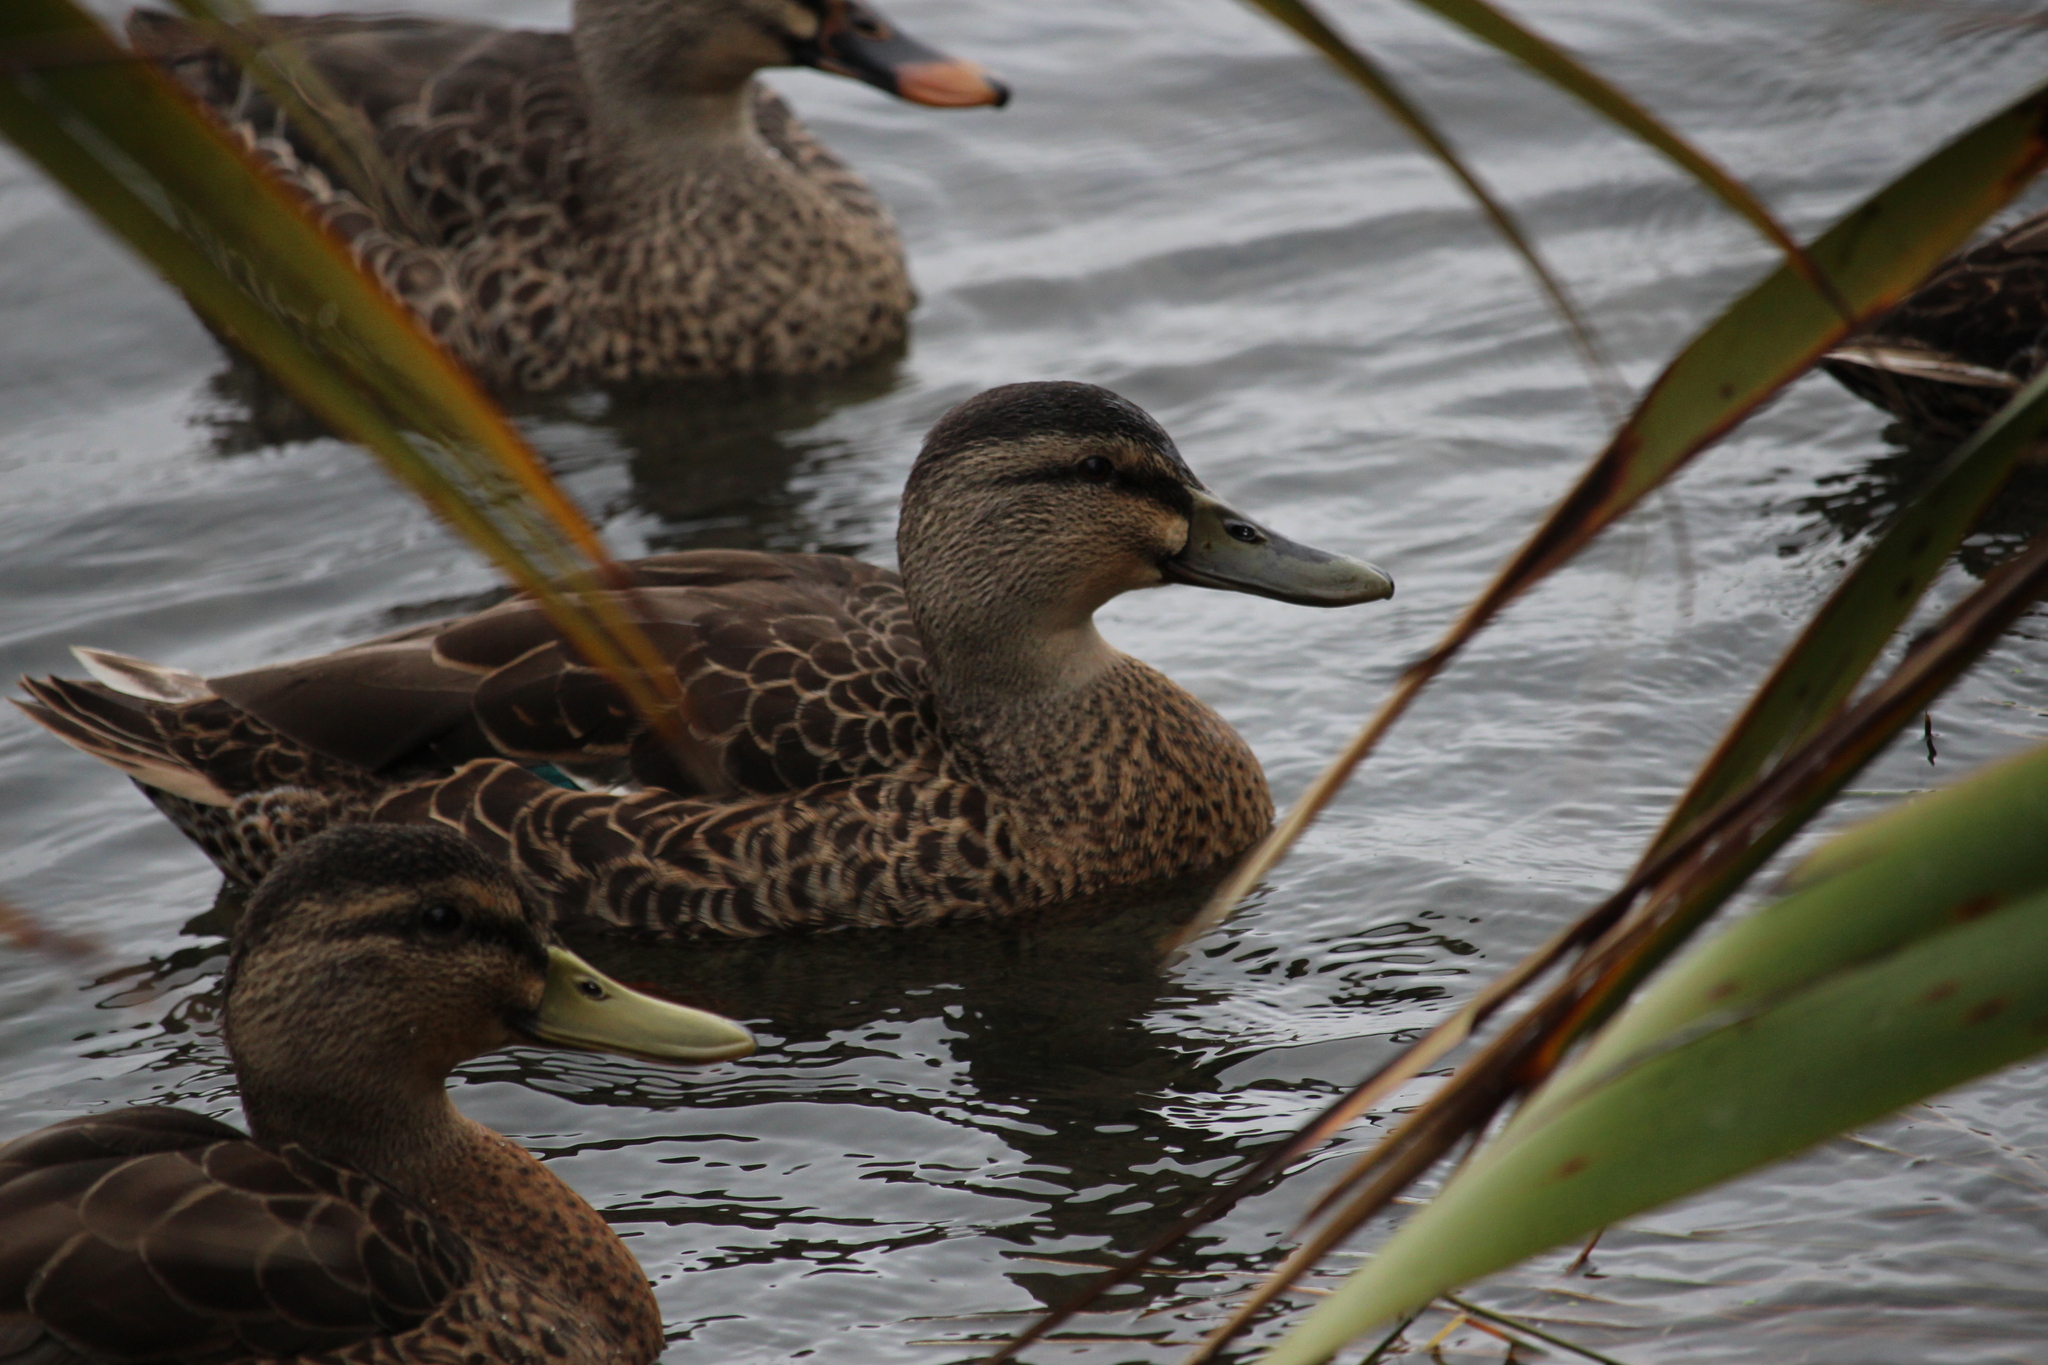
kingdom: Animalia
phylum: Chordata
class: Aves
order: Anseriformes
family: Anatidae
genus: Anas
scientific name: Anas
